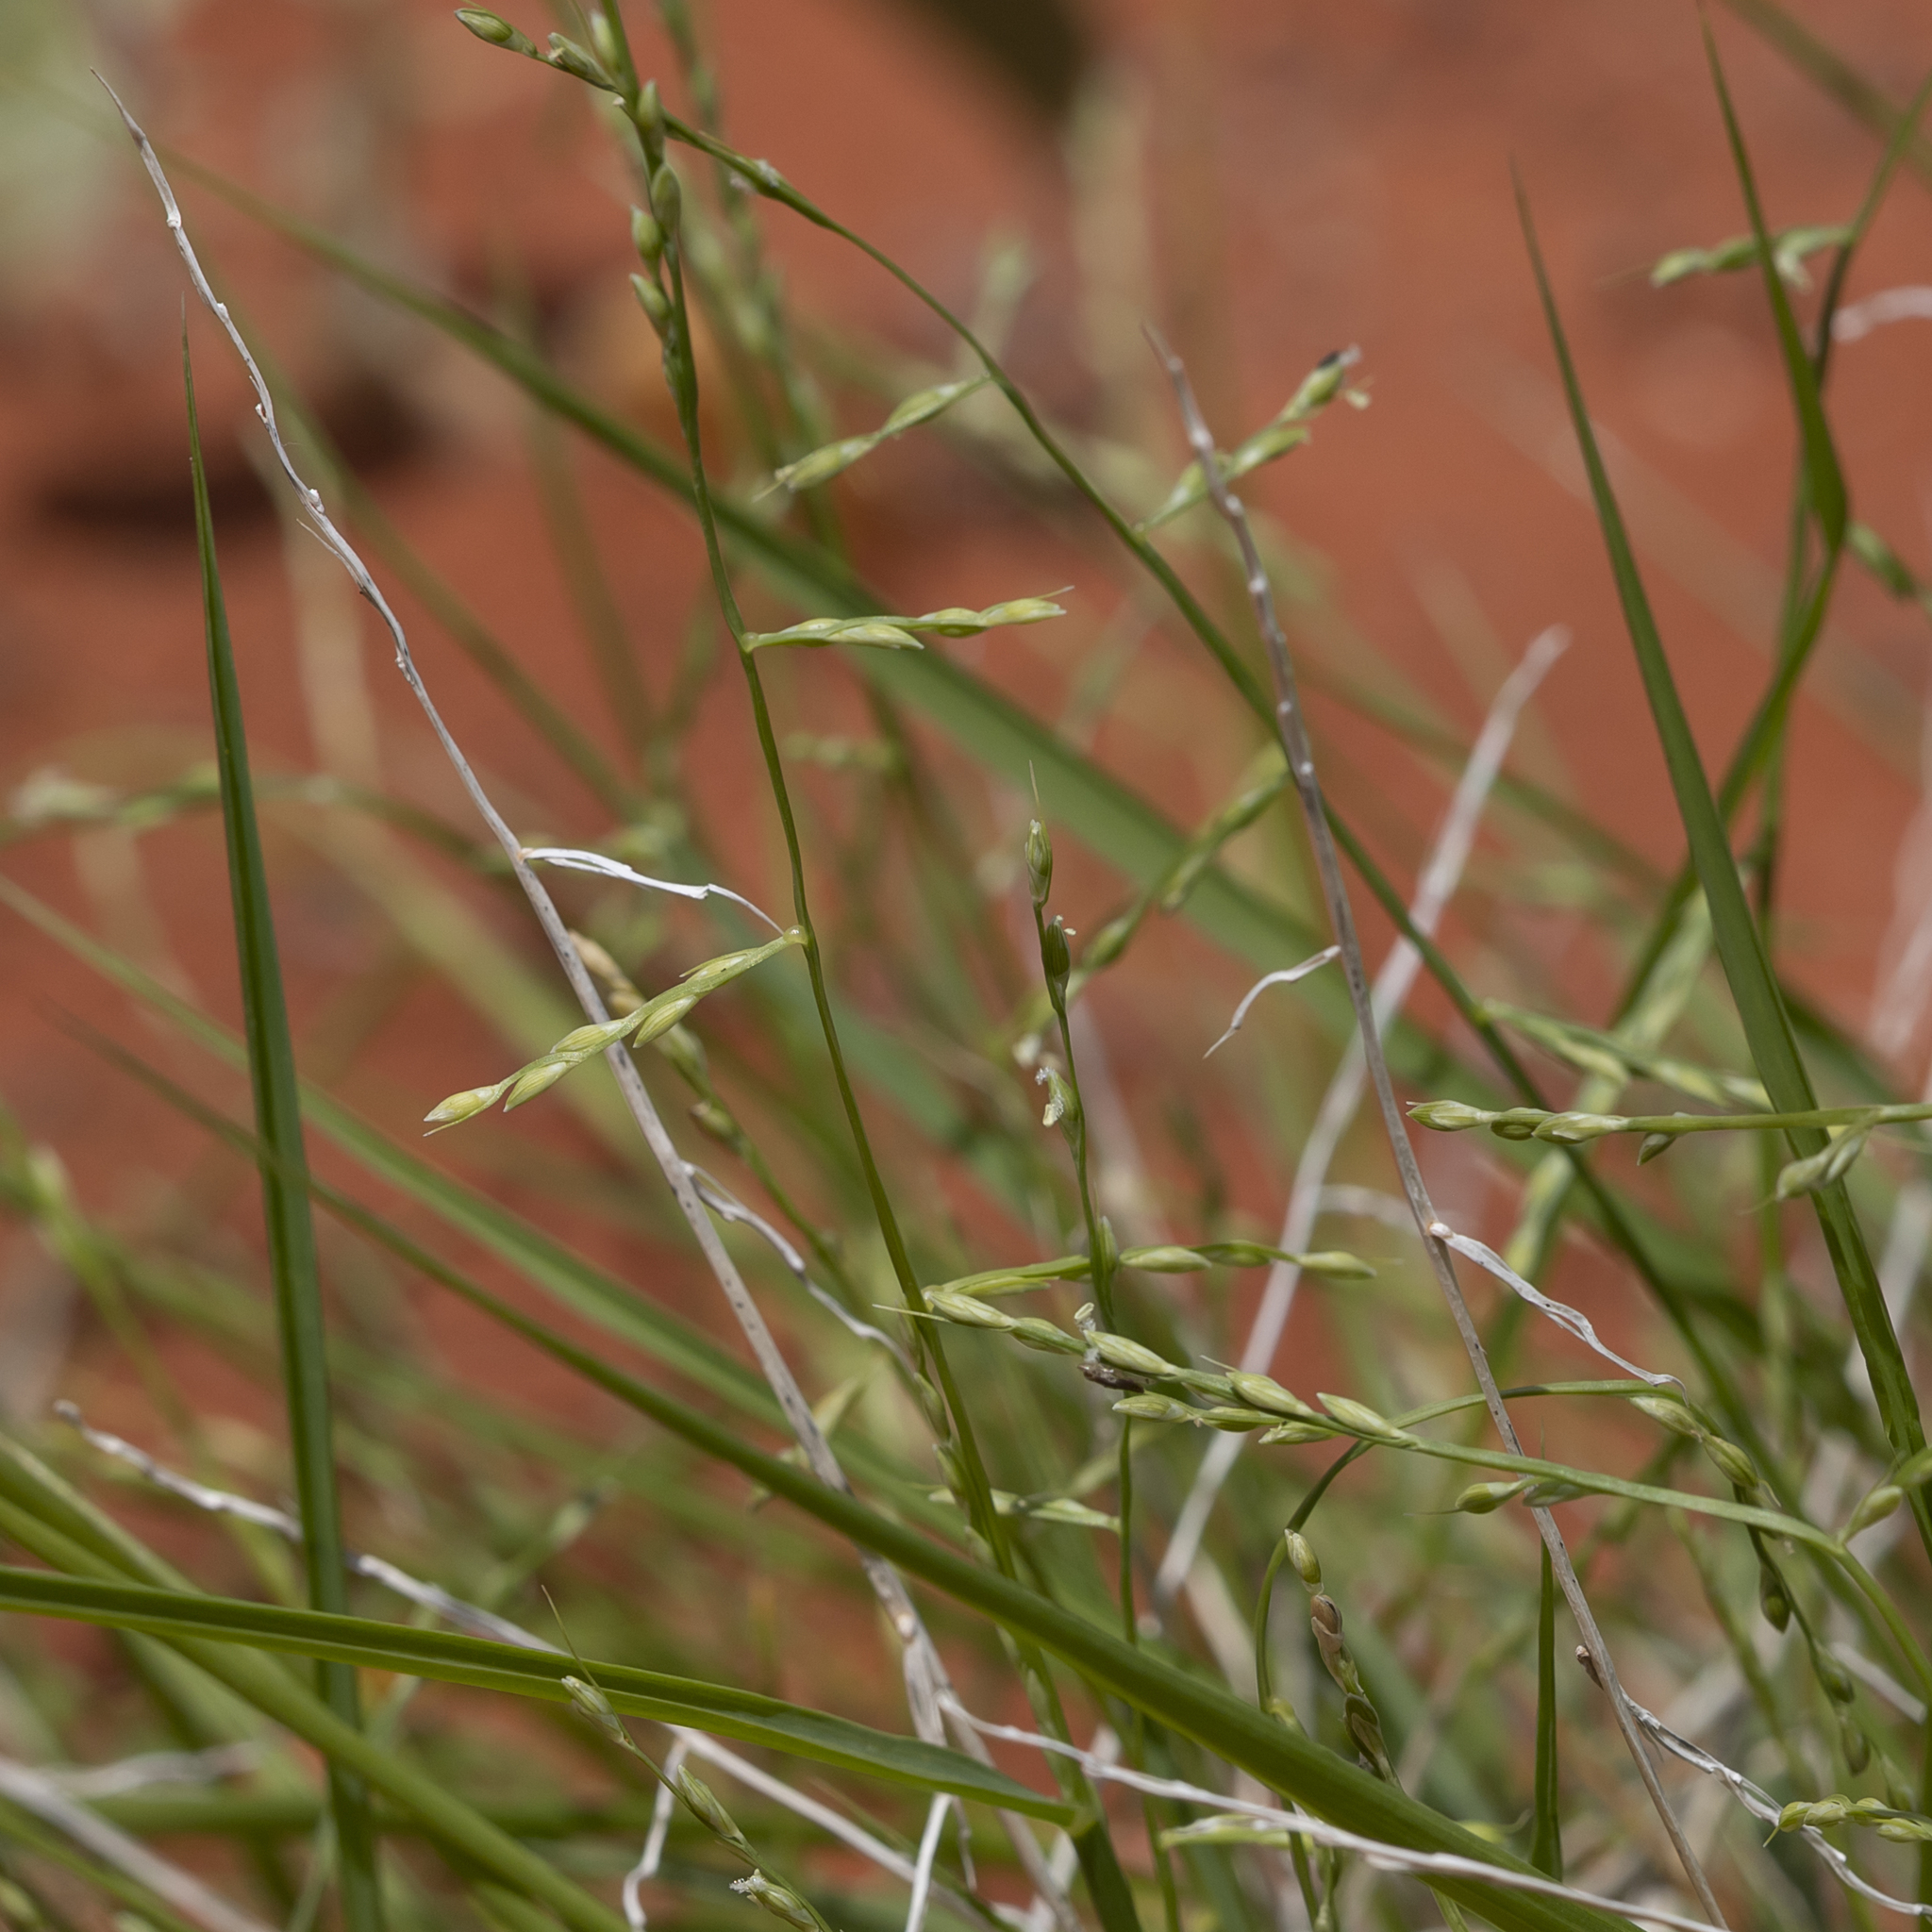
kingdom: Plantae
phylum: Tracheophyta
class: Liliopsida
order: Poales
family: Poaceae
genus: Paractaenum
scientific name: Paractaenum novae-hollandiae
